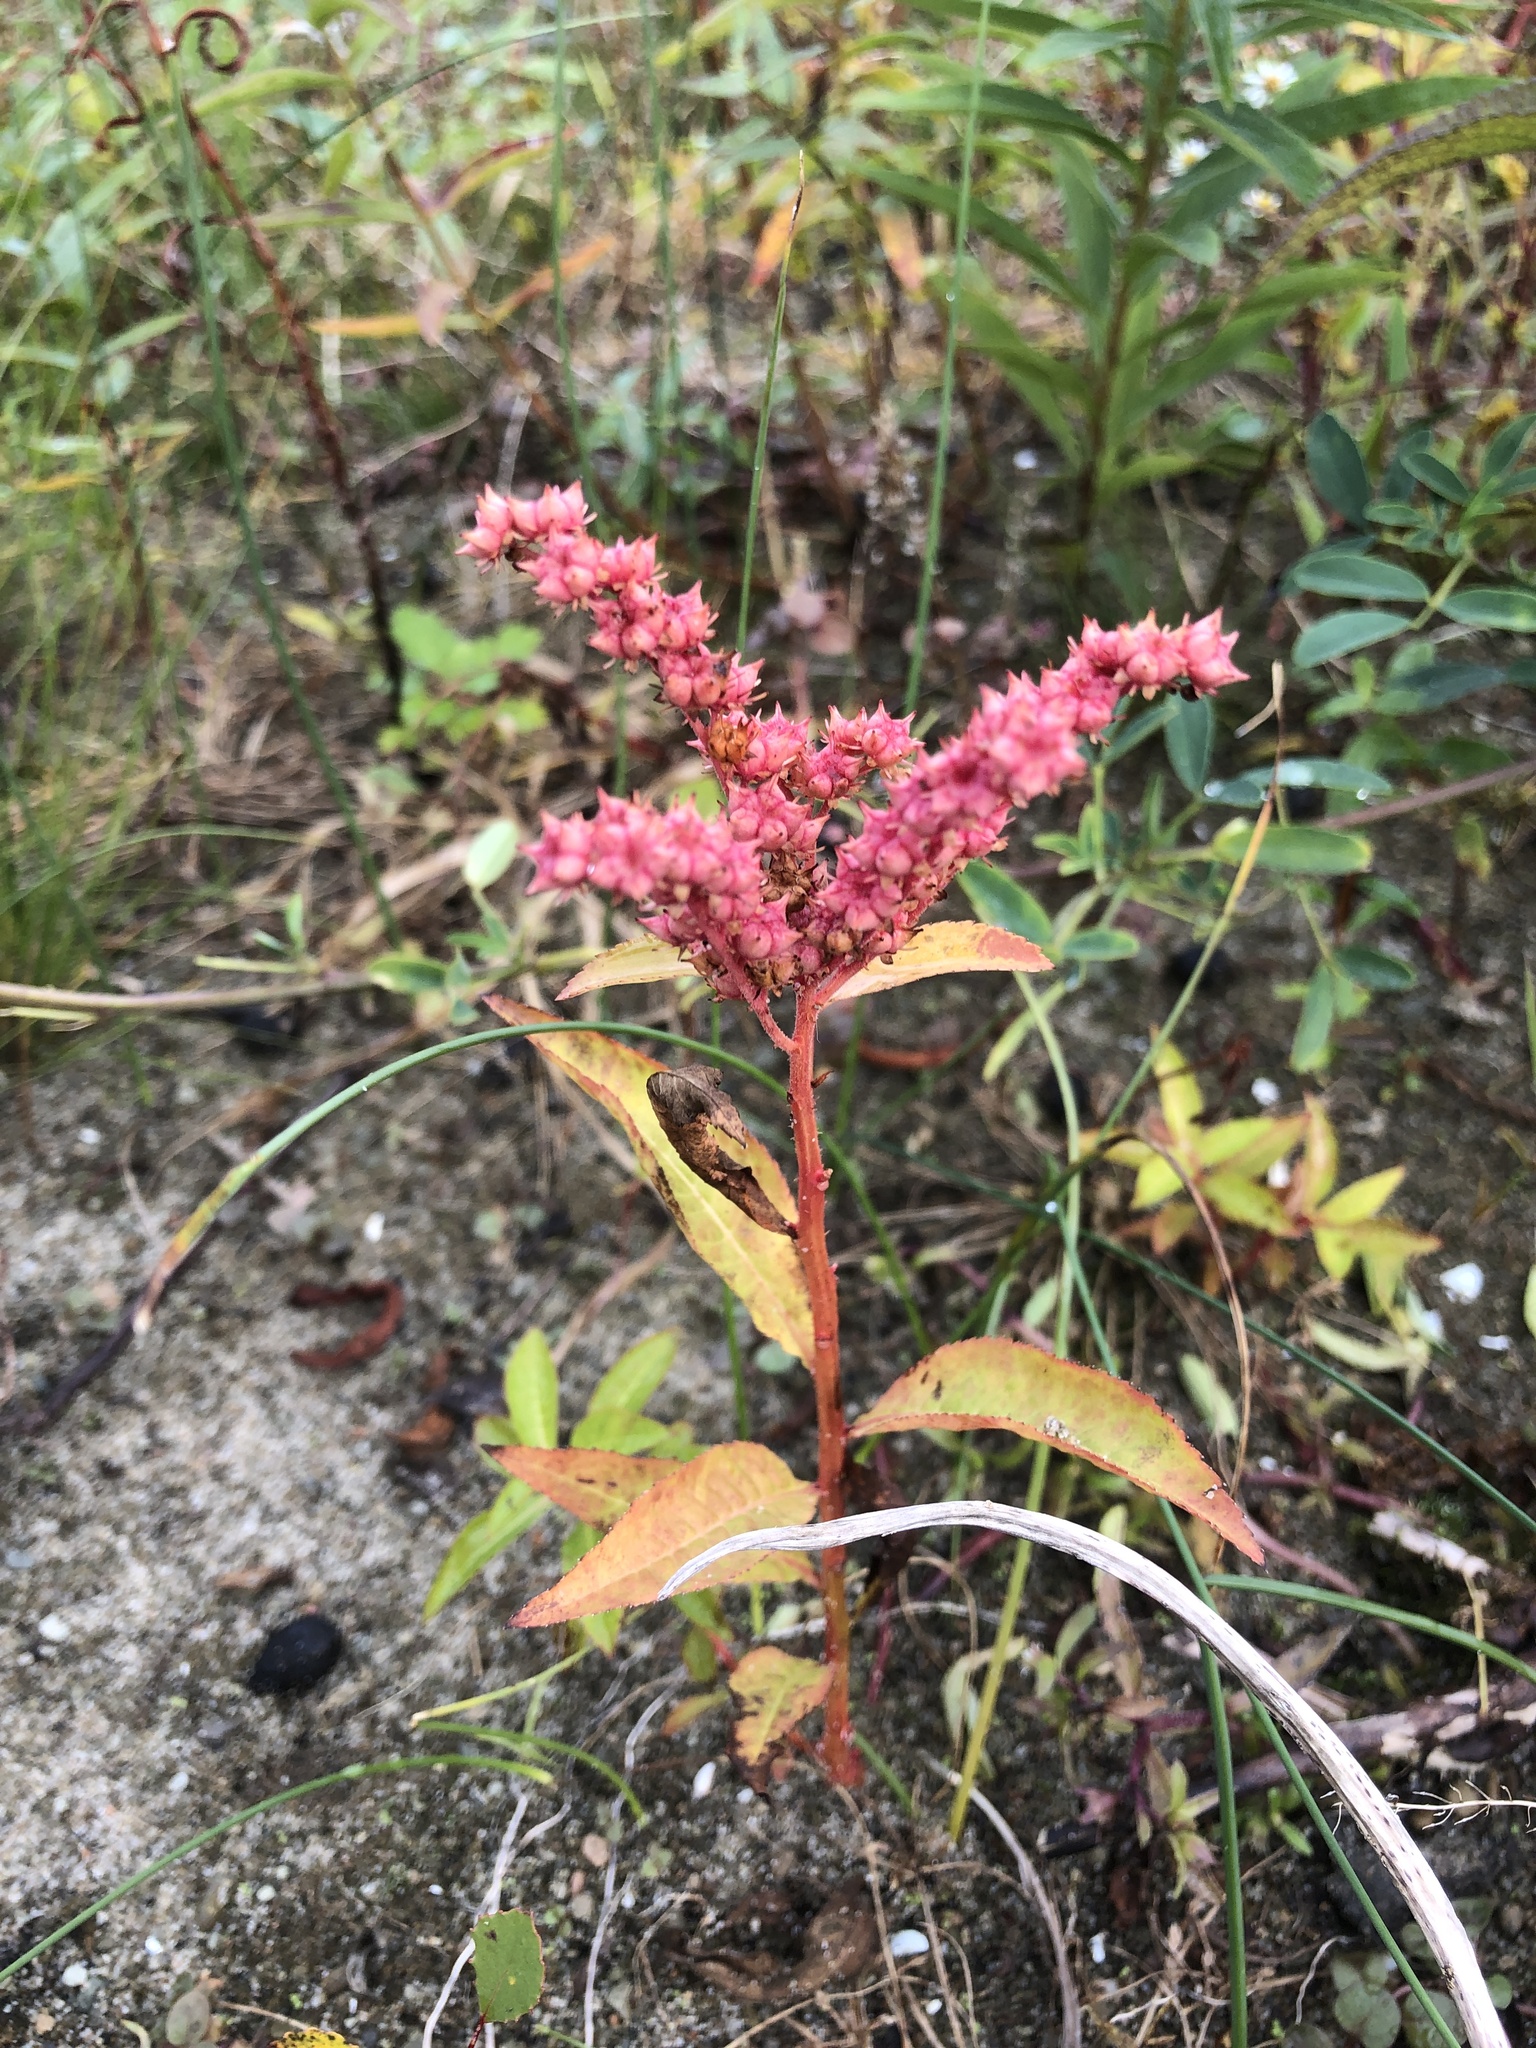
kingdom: Plantae
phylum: Tracheophyta
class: Magnoliopsida
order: Saxifragales
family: Penthoraceae
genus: Penthorum
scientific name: Penthorum sedoides
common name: Ditch stonecrop
